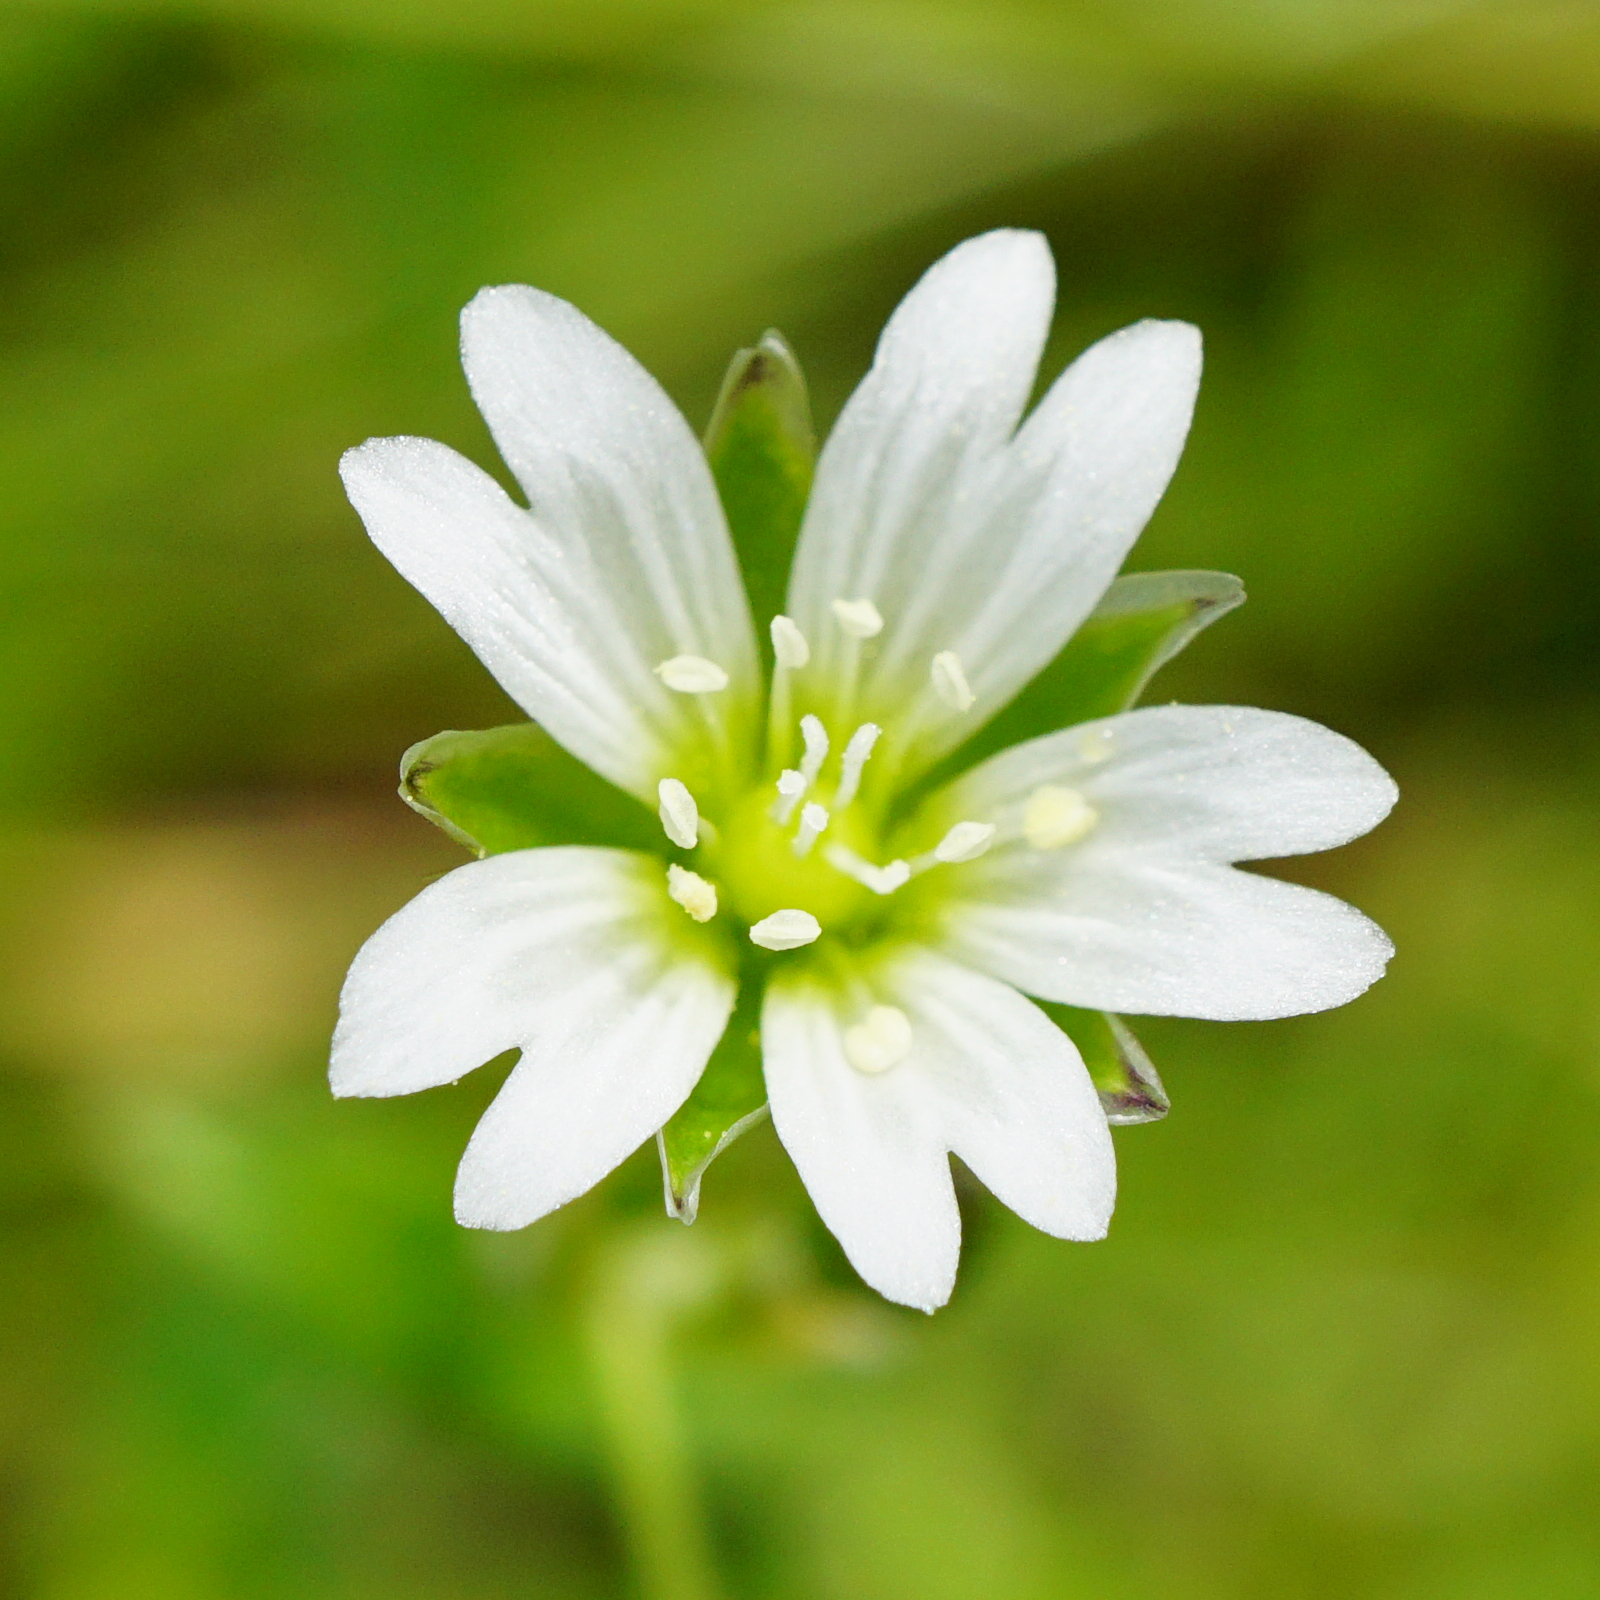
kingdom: Plantae
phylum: Tracheophyta
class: Magnoliopsida
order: Caryophyllales
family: Caryophyllaceae
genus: Cerastium
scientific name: Cerastium holosteoides
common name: Big chickweed
